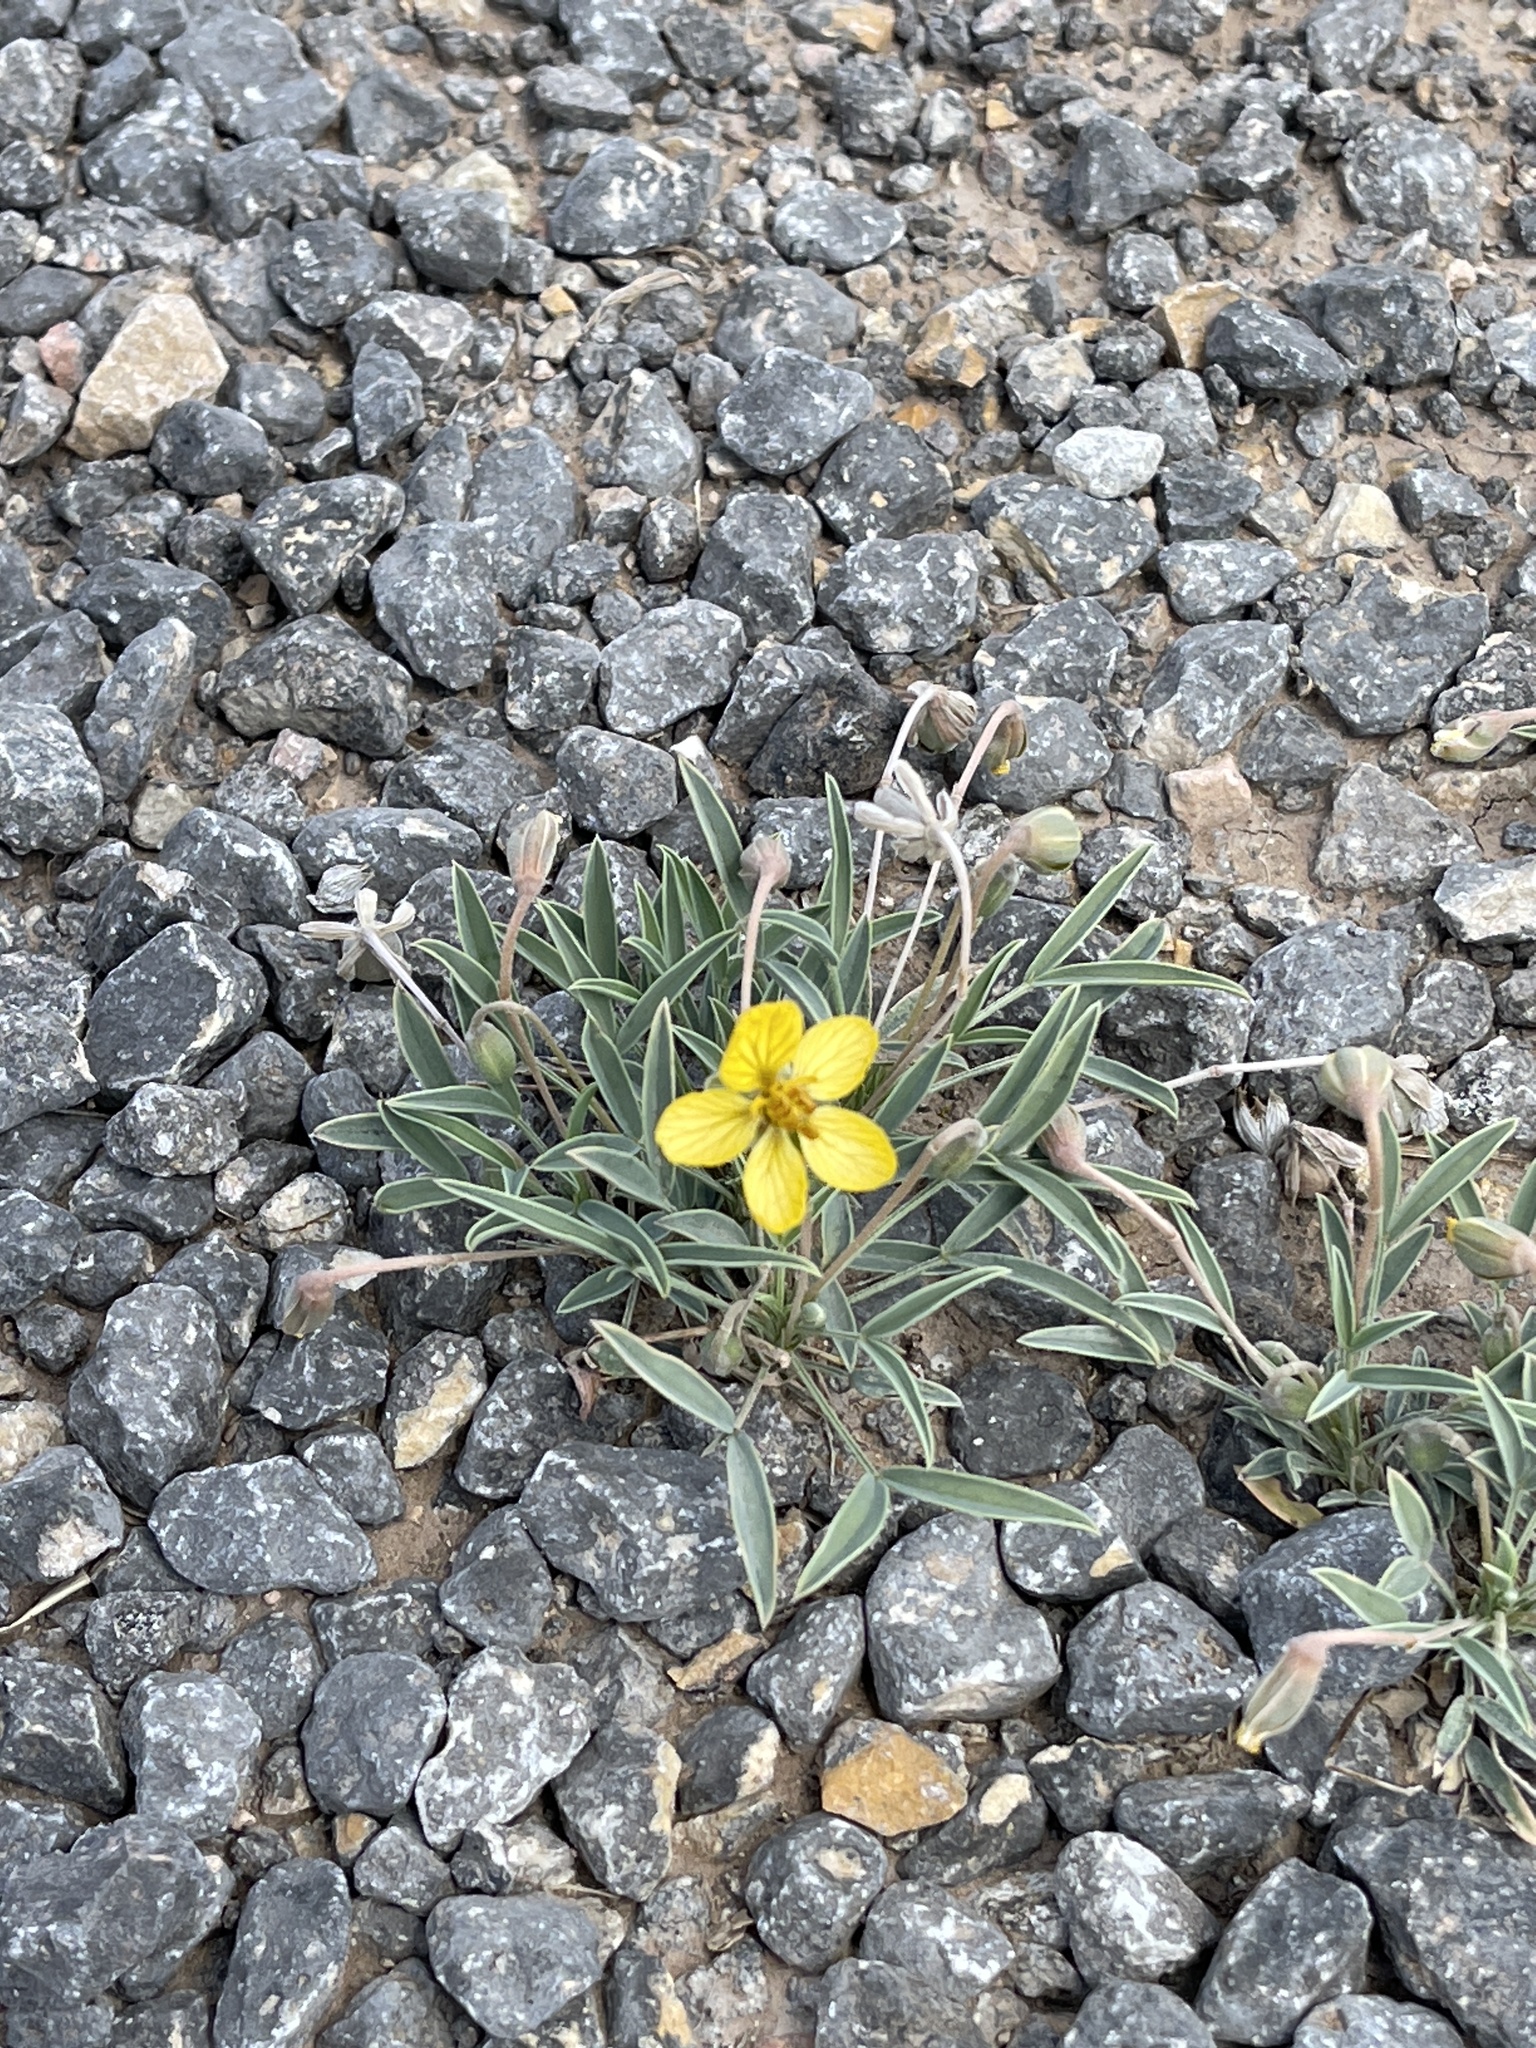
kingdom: Plantae
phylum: Tracheophyta
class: Magnoliopsida
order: Fabales
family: Fabaceae
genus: Senna
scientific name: Senna pumilio
